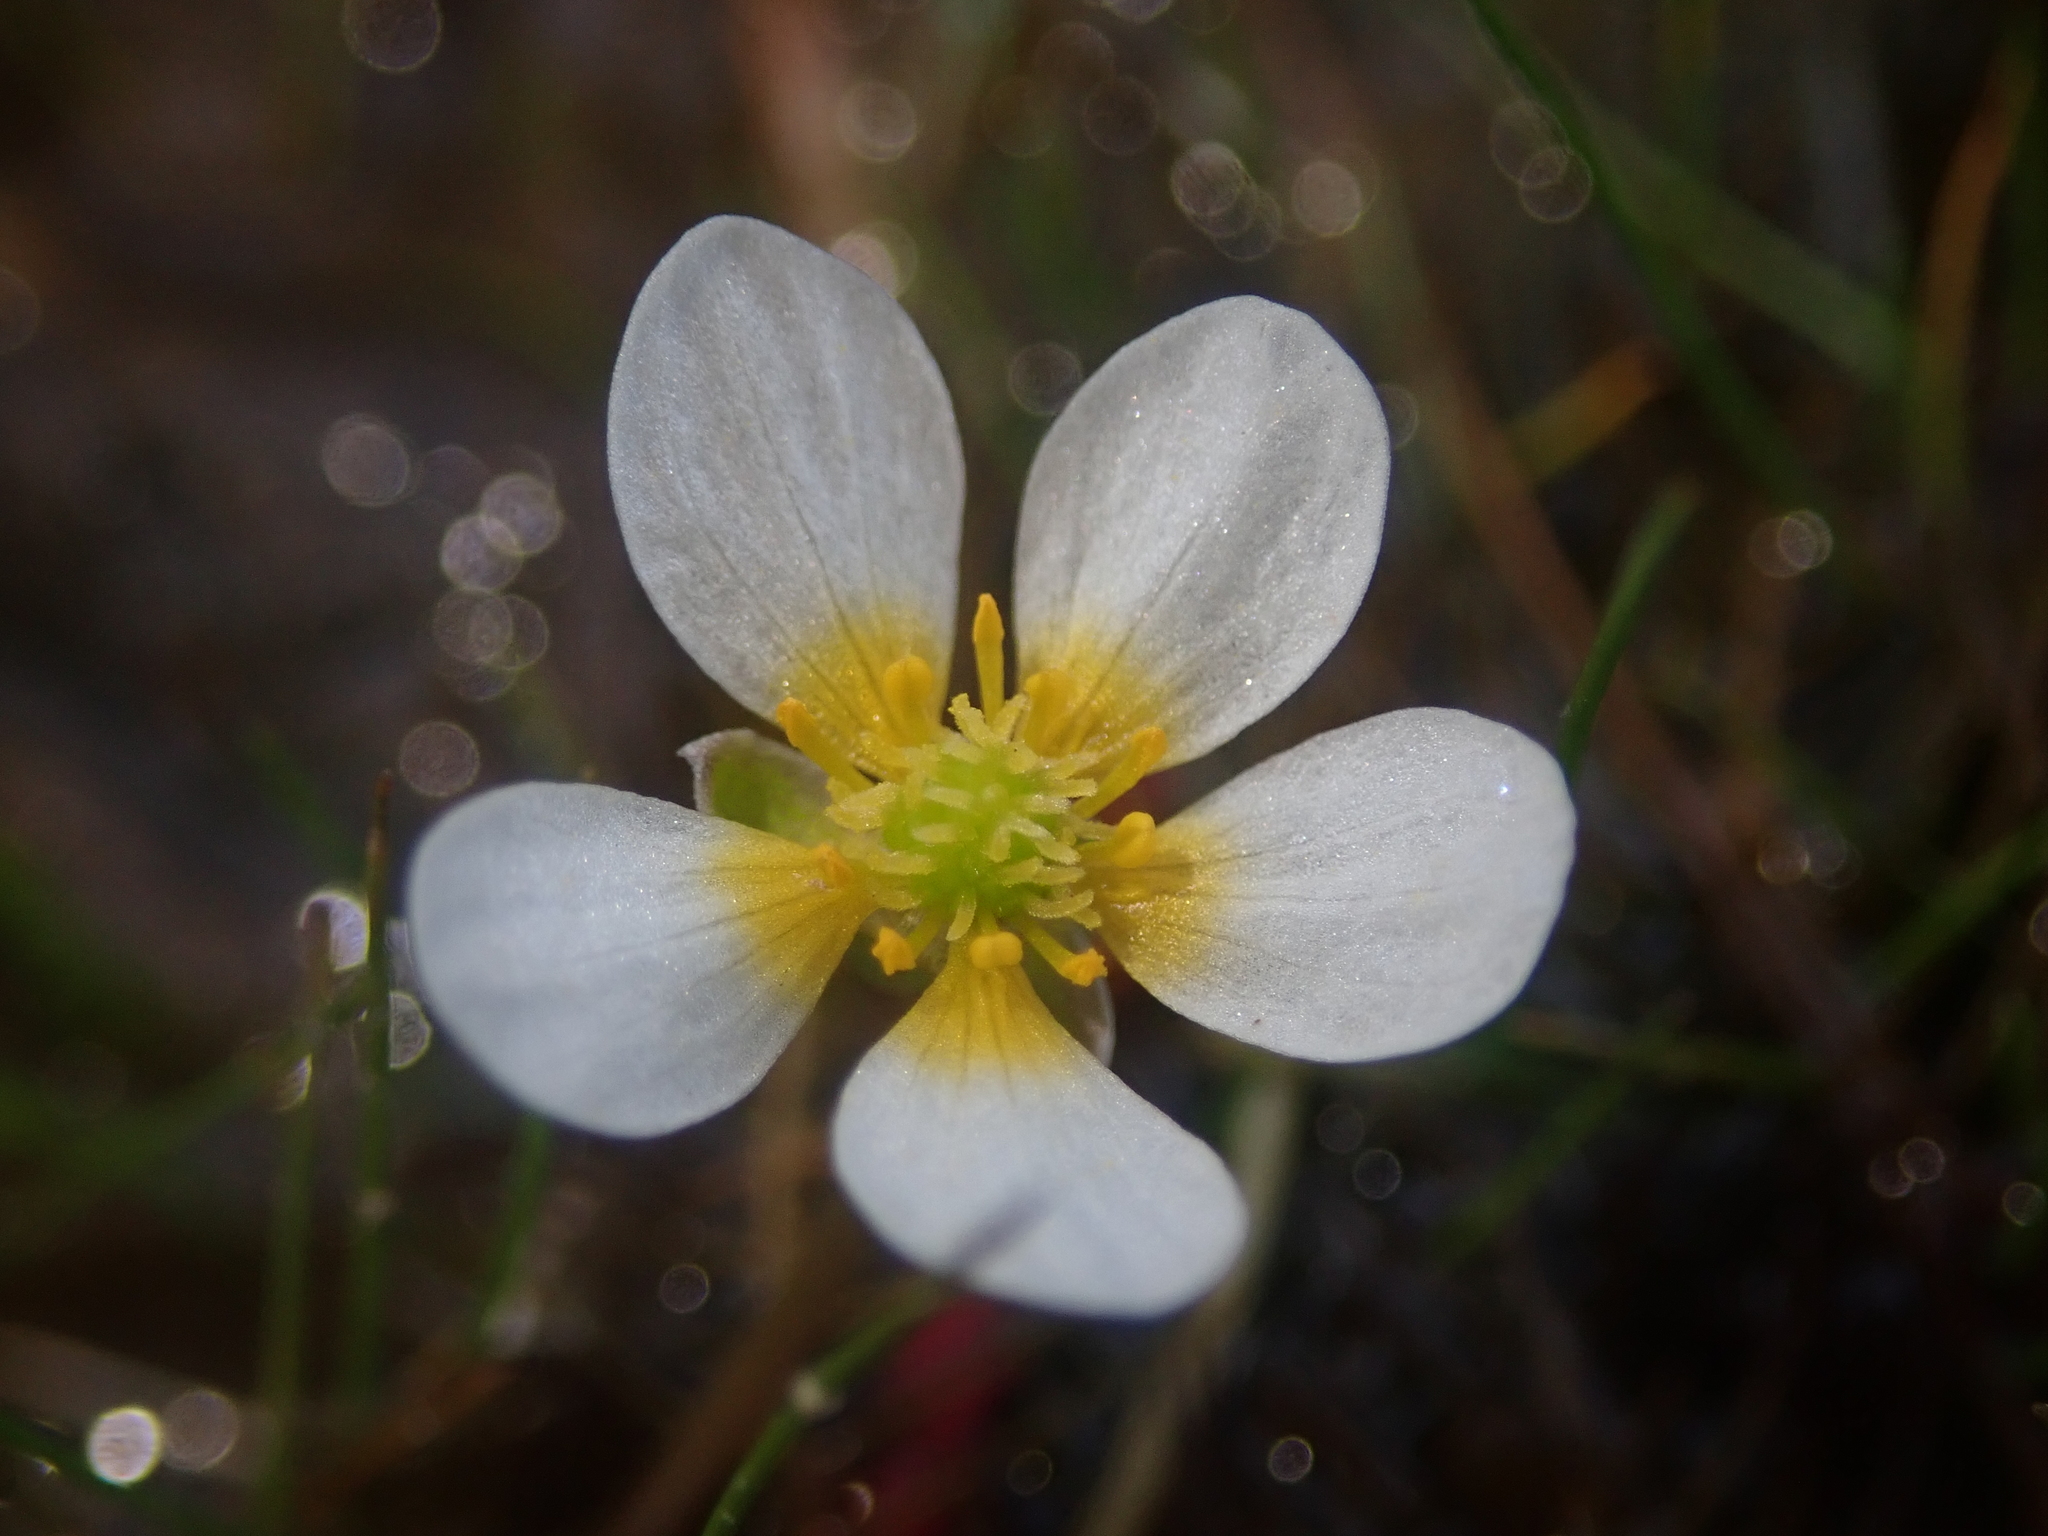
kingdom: Plantae
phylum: Tracheophyta
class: Magnoliopsida
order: Ranunculales
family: Ranunculaceae
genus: Ranunculus
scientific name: Ranunculus aquatilis
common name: Common water-crowfoot
